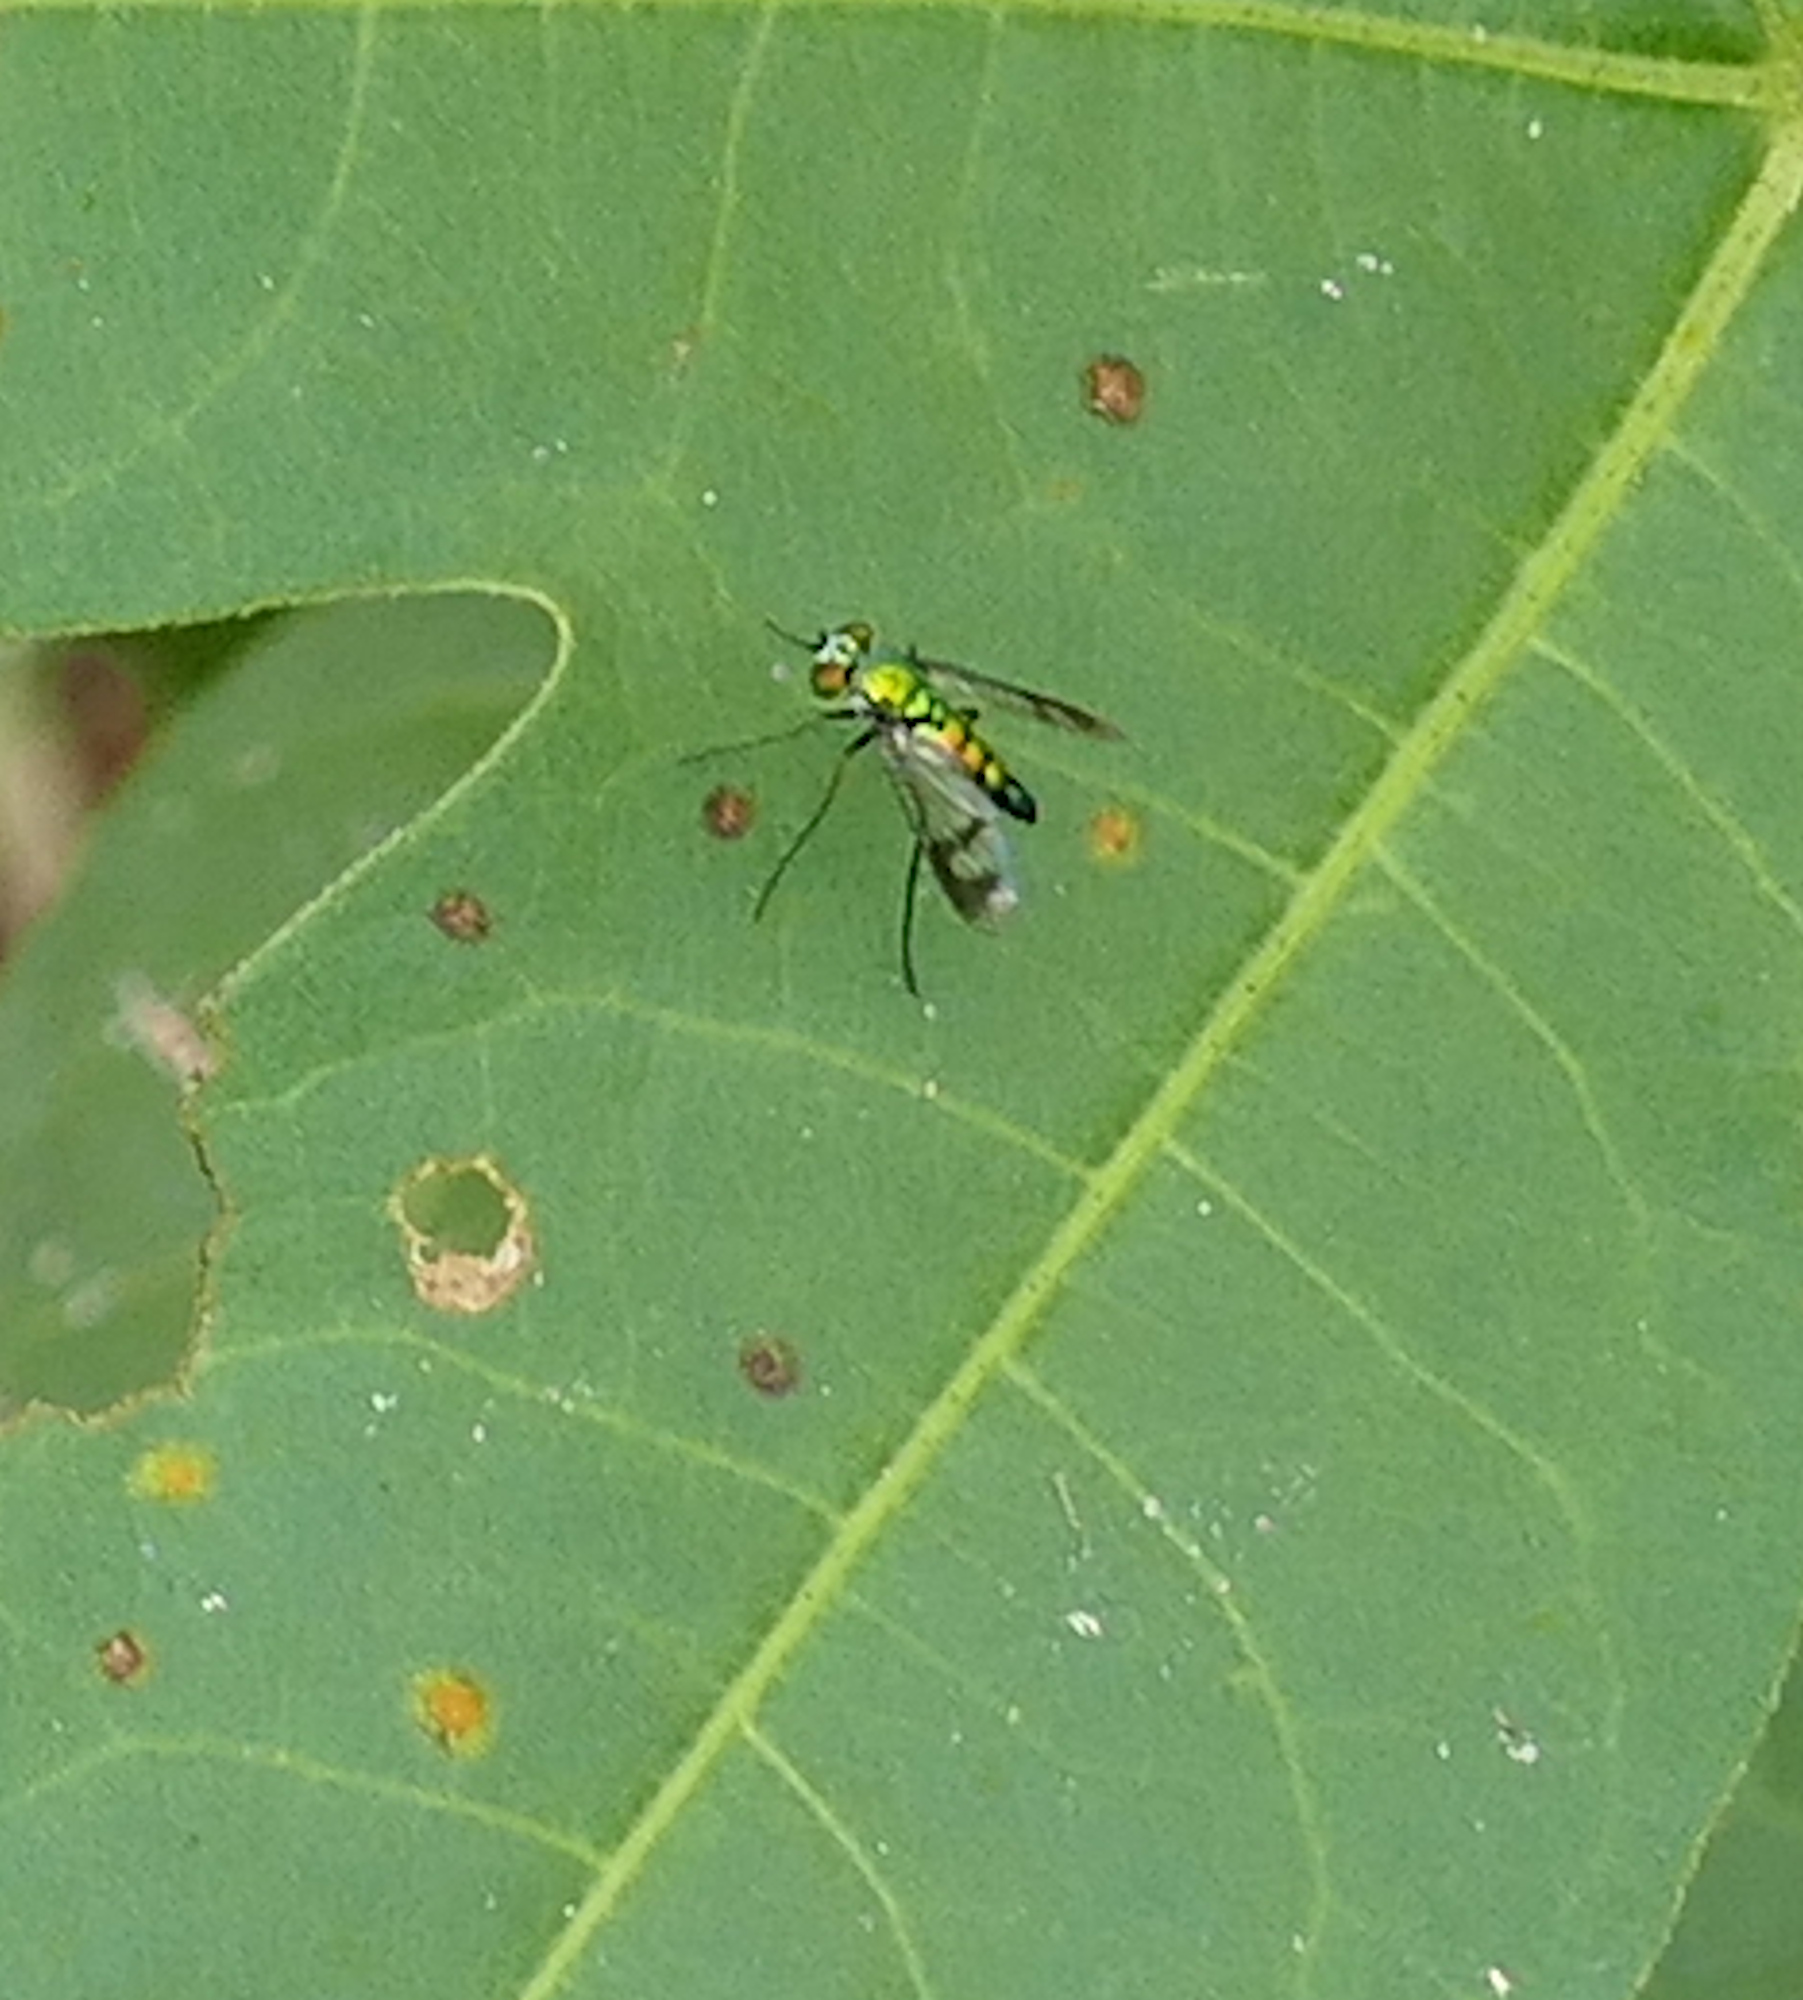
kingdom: Animalia
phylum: Arthropoda
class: Insecta
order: Diptera
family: Dolichopodidae
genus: Condylostylus
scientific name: Condylostylus quadricolor
